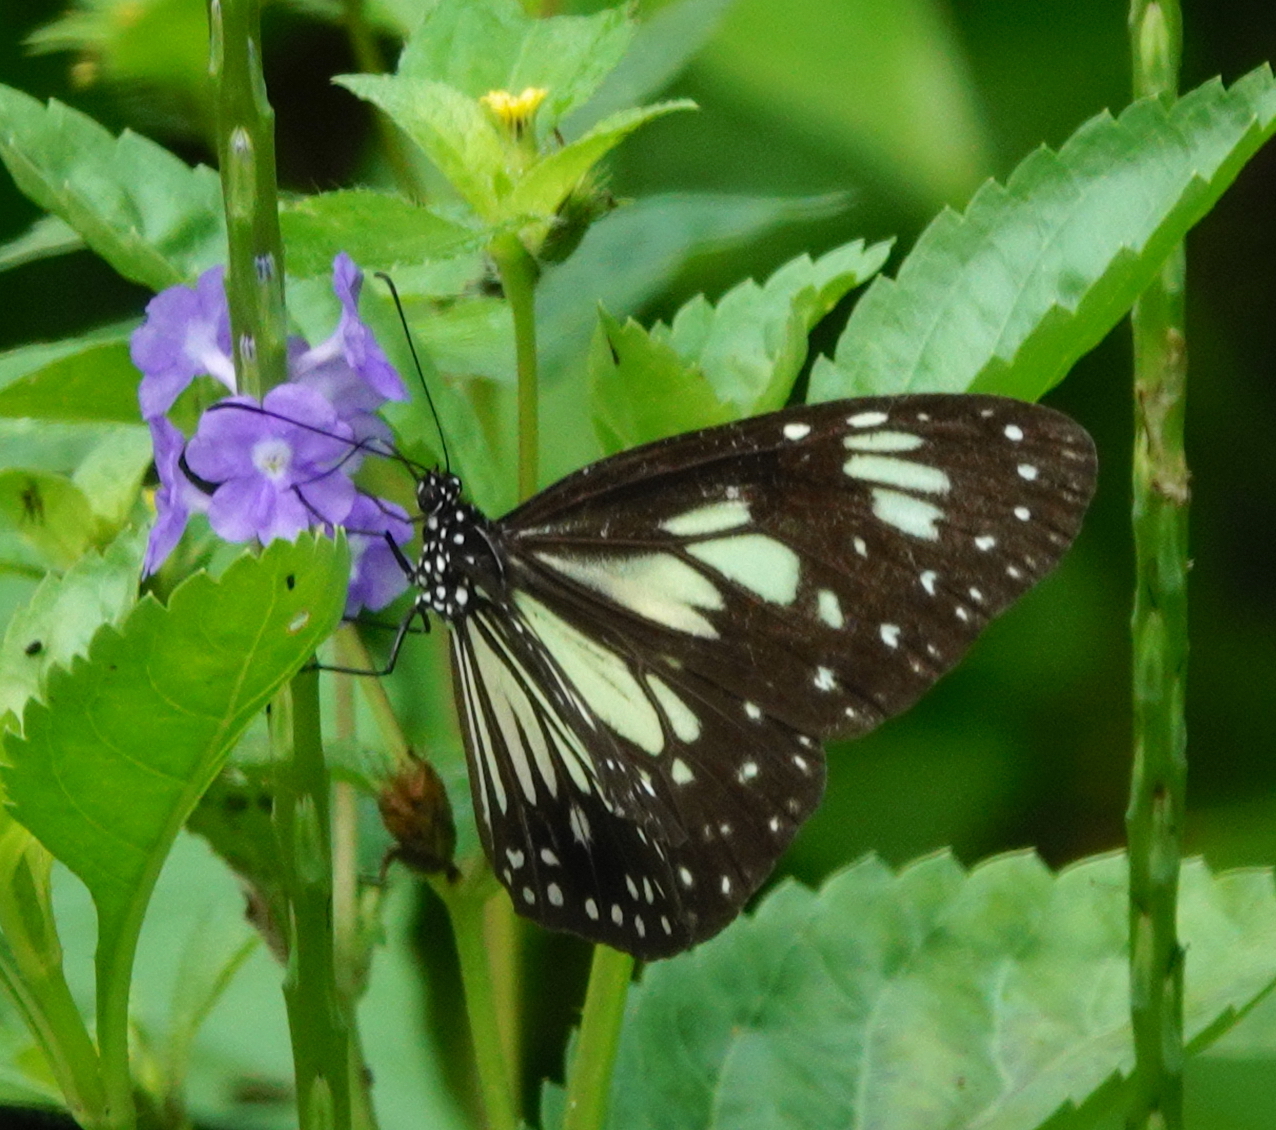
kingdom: Animalia
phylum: Arthropoda
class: Insecta
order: Lepidoptera
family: Nymphalidae
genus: Parantica
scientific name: Parantica cleona
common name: Yellow tiger
